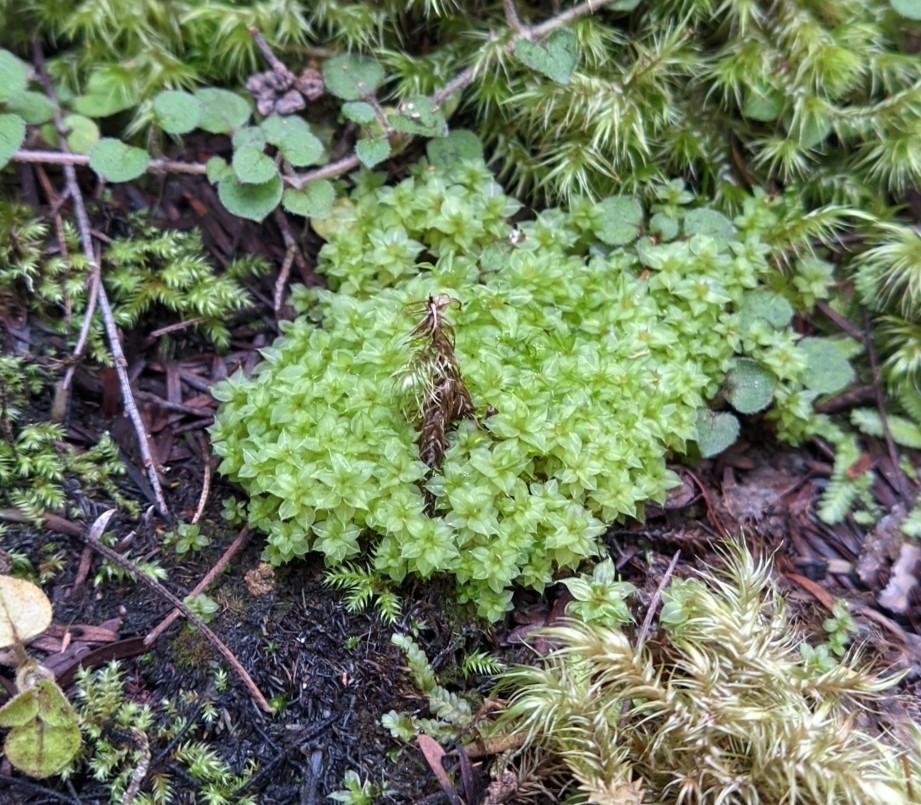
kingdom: Plantae
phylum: Bryophyta
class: Bryopsida
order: Splachnales
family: Splachnaceae
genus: Tayloria
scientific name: Tayloria callophylla
